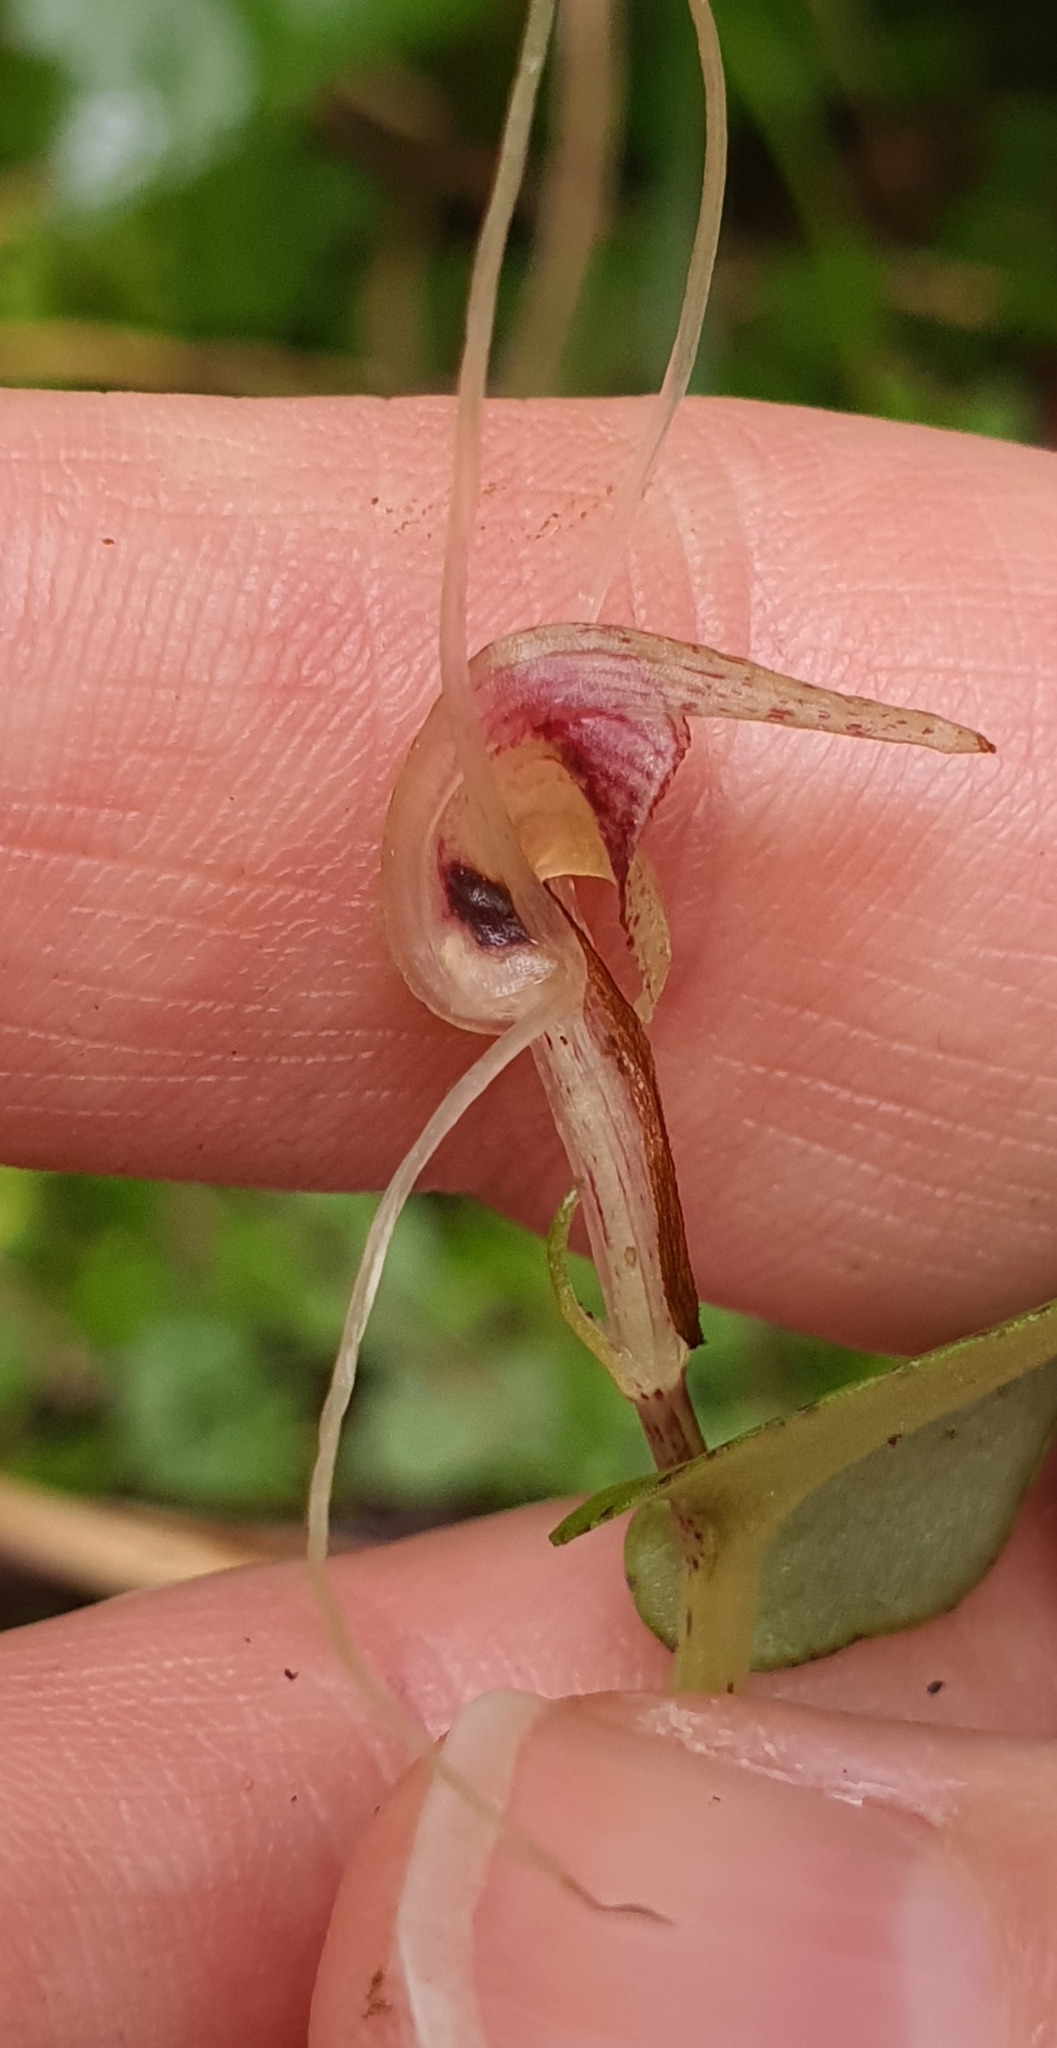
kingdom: Plantae
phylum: Tracheophyta
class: Liliopsida
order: Asparagales
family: Orchidaceae
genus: Corybas
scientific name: Corybas rivularis
